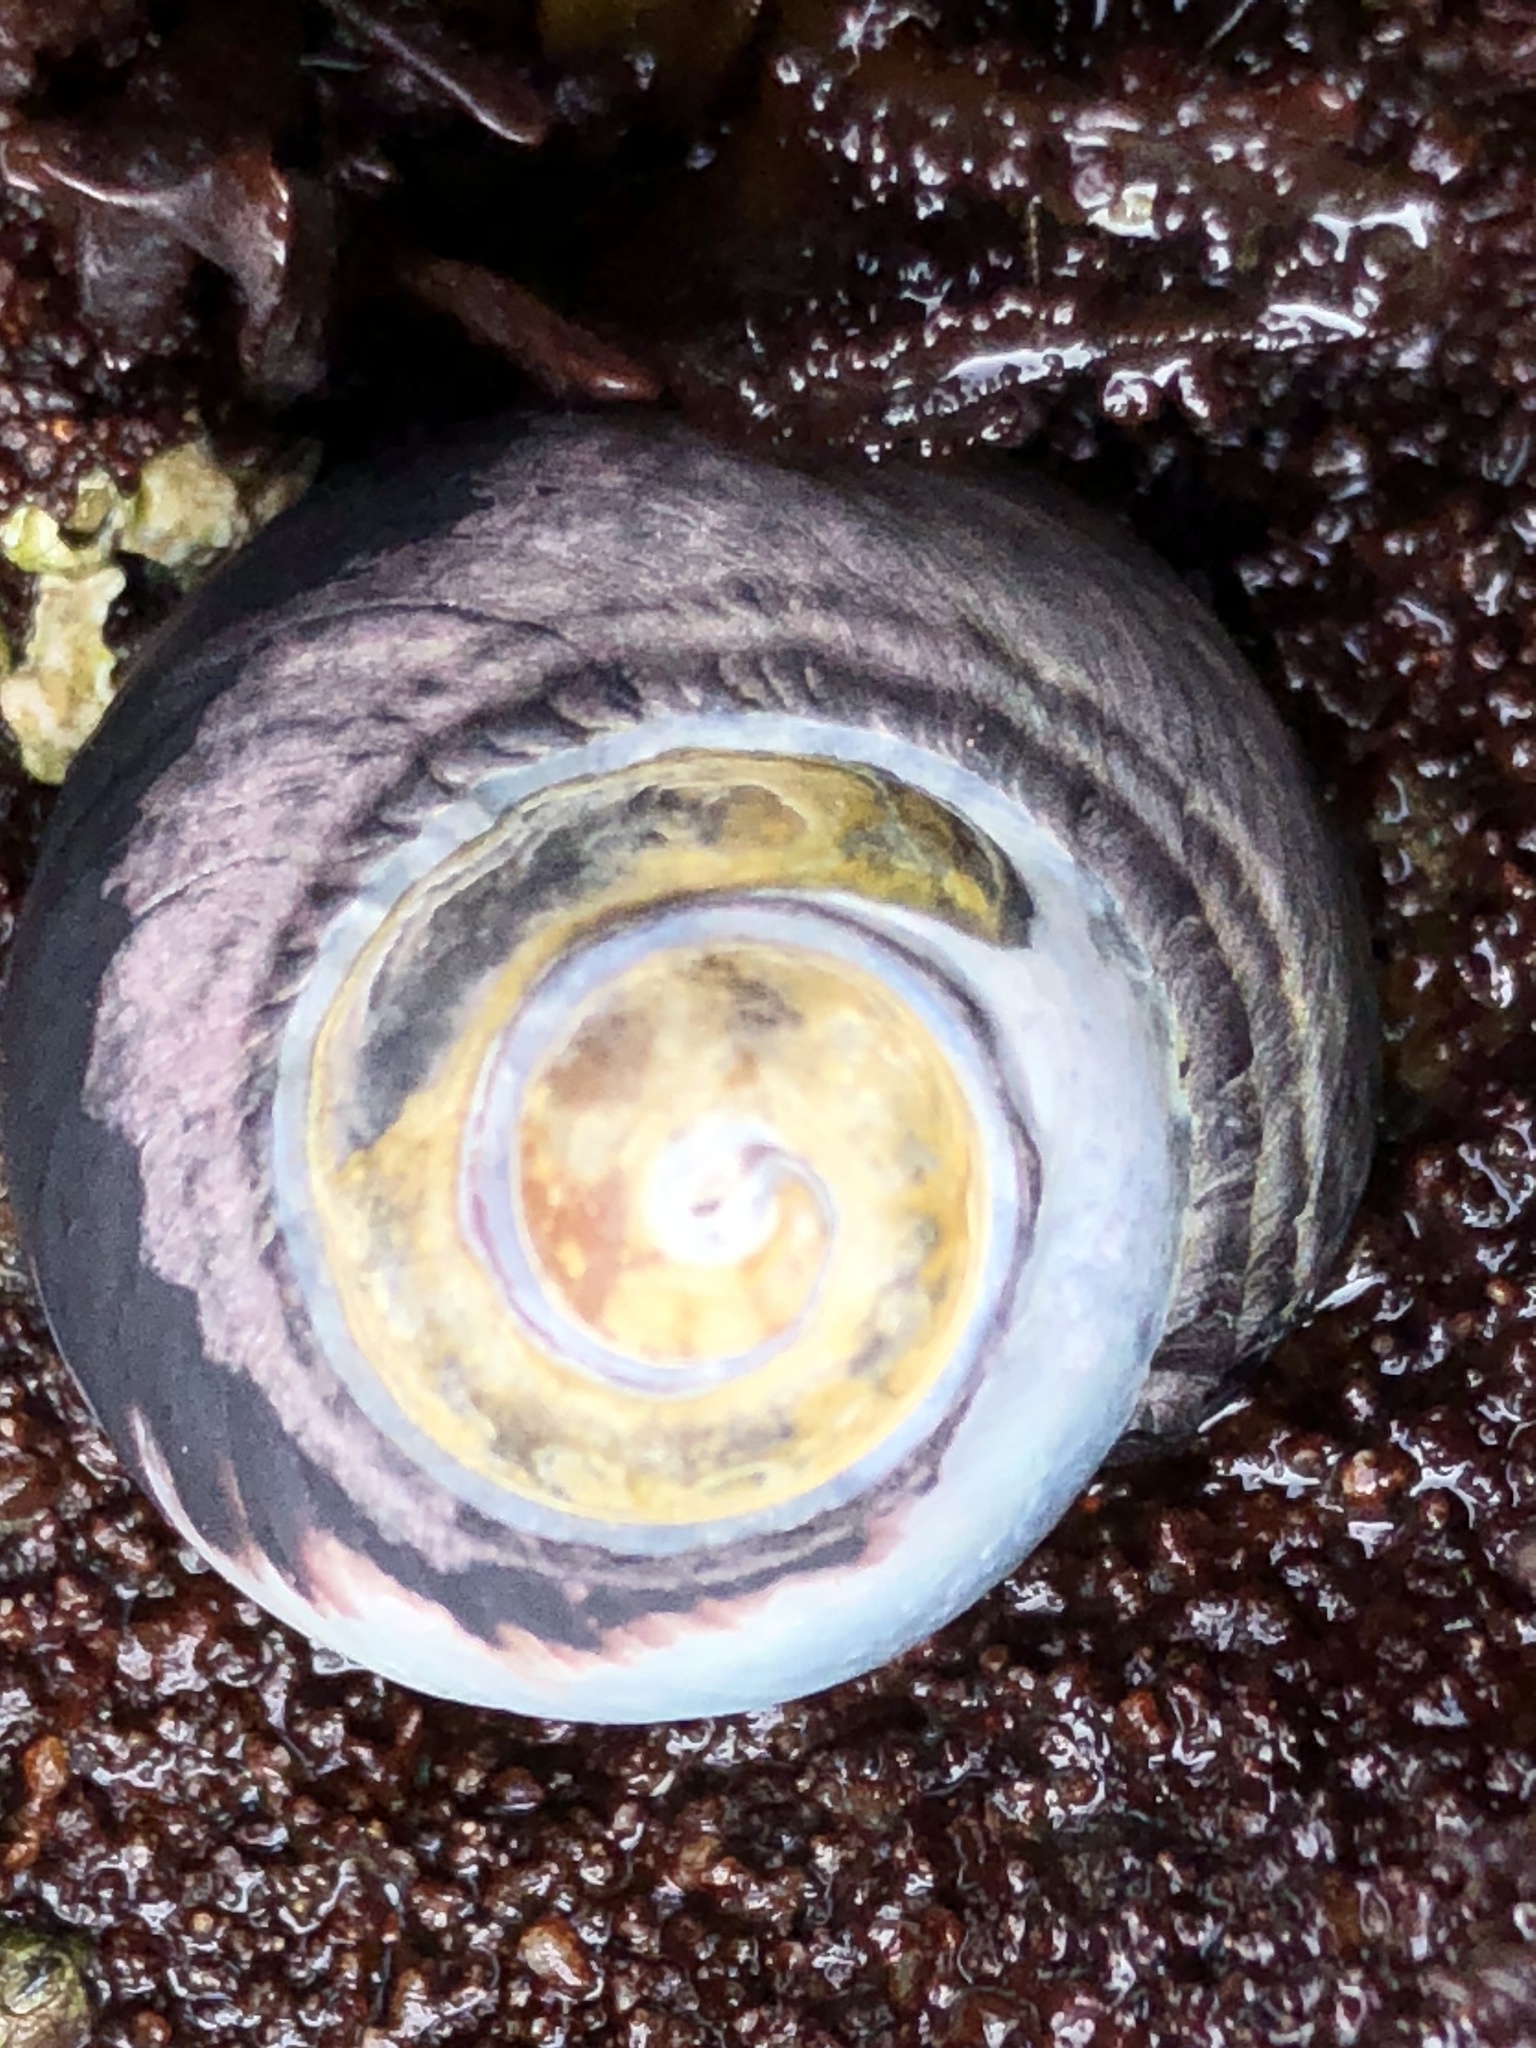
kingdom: Animalia
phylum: Mollusca
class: Gastropoda
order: Trochida
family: Tegulidae
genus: Tegula
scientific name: Tegula funebralis
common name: Black tegula
